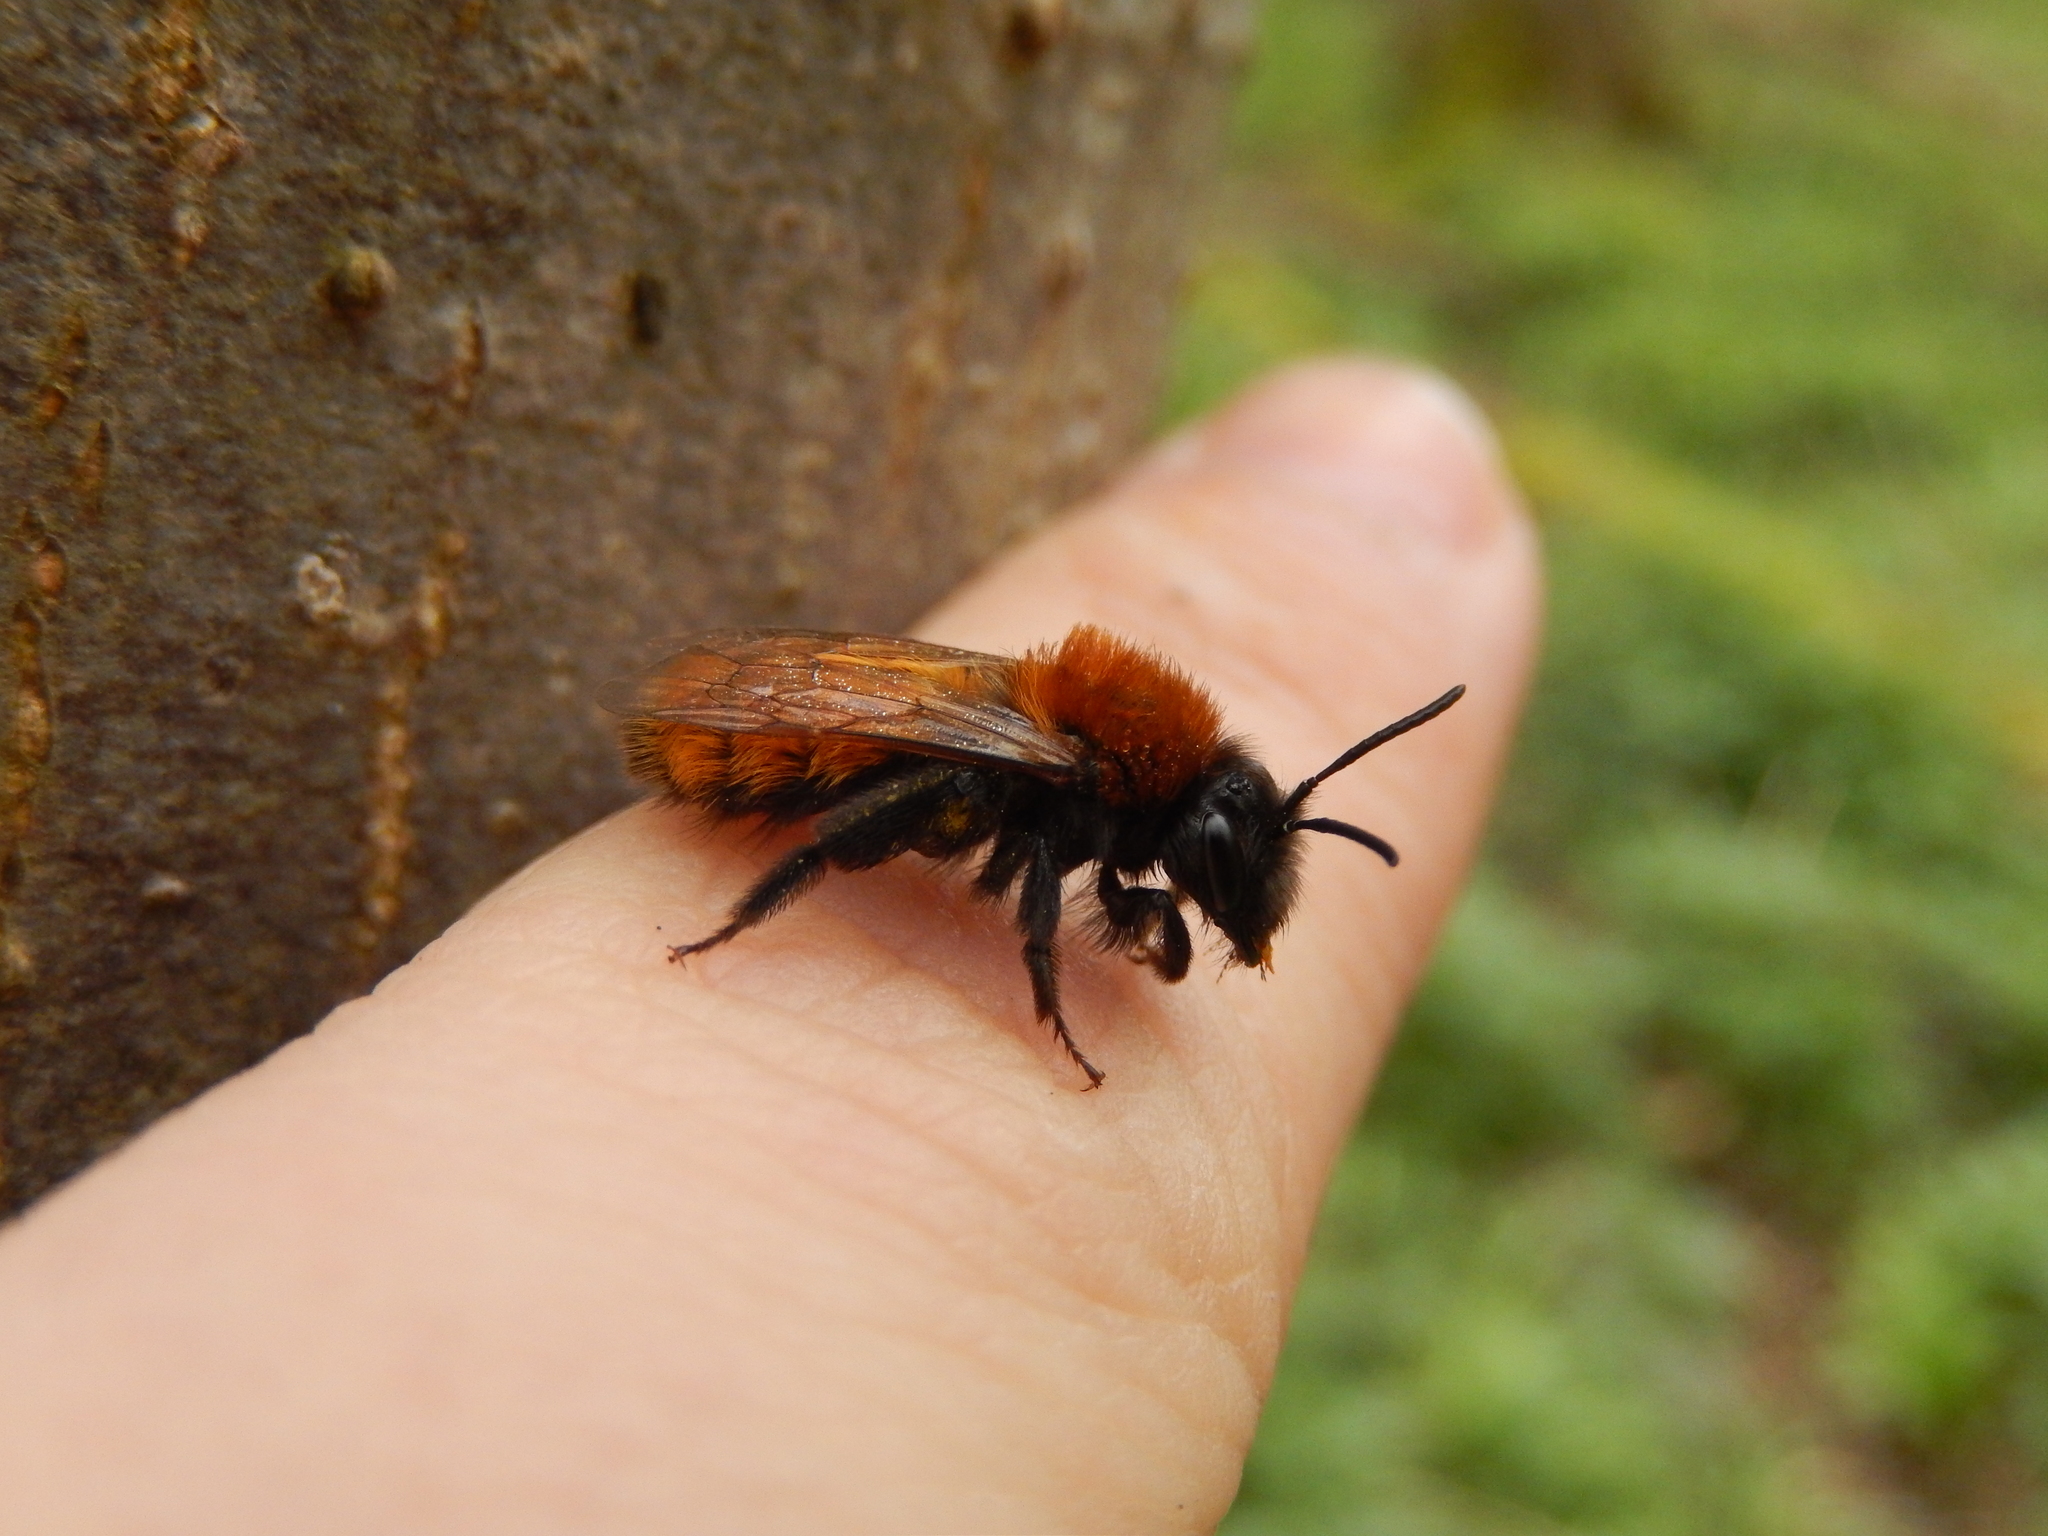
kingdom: Animalia
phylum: Arthropoda
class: Insecta
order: Hymenoptera
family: Andrenidae
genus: Andrena
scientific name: Andrena fulva
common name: Tawny mining bee
